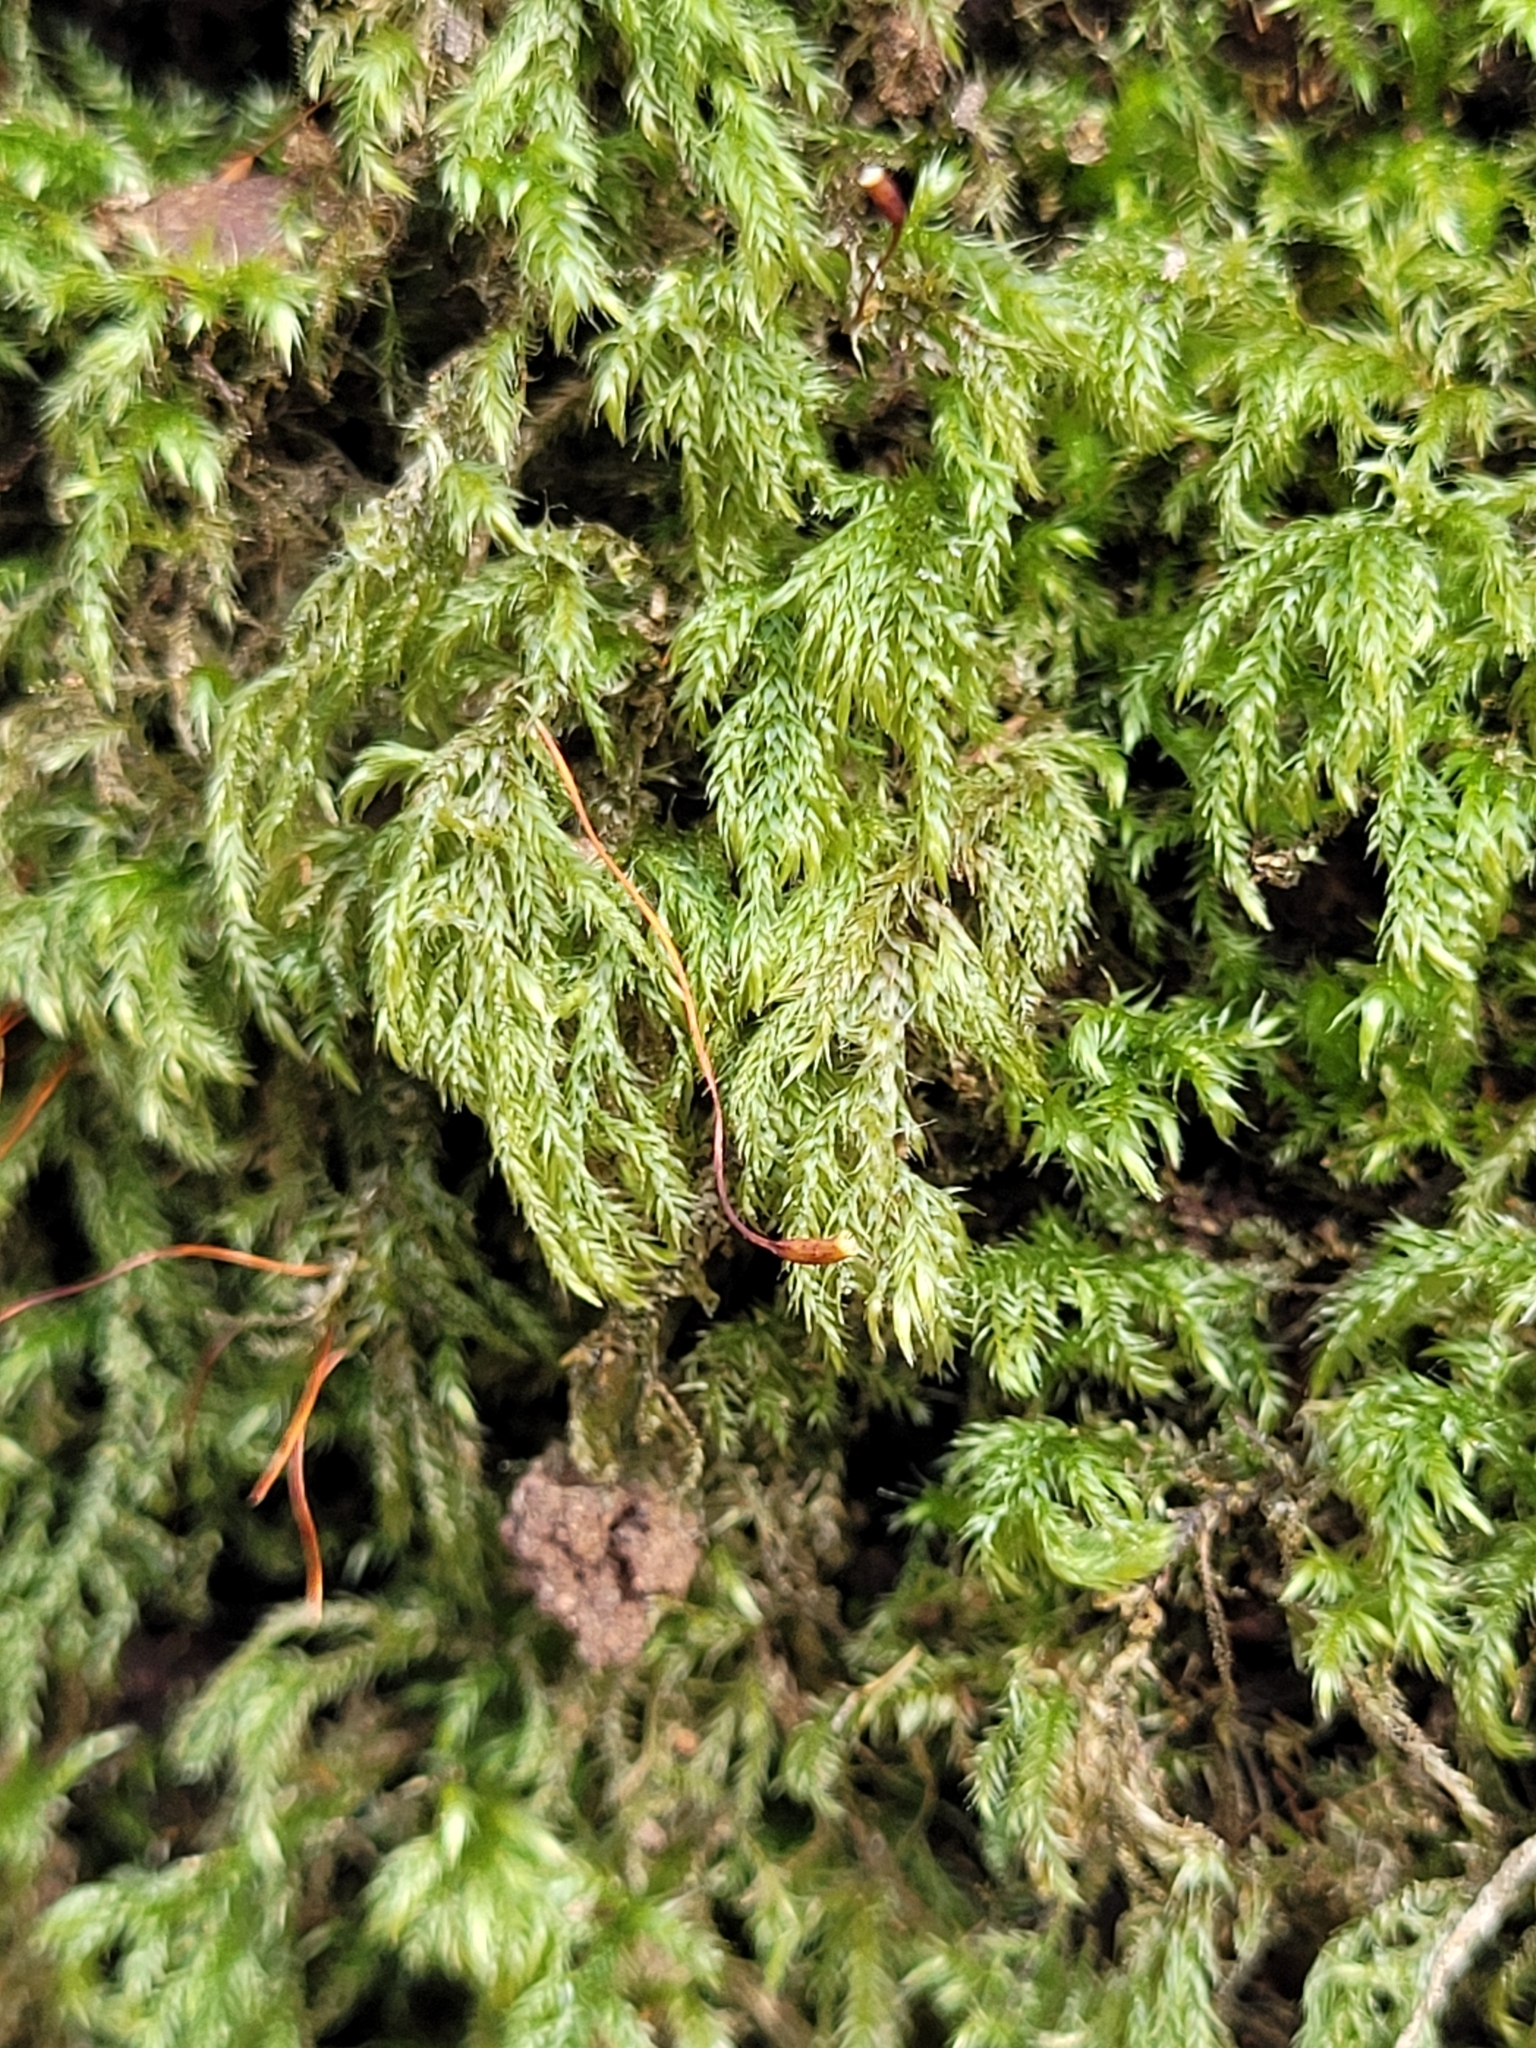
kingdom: Plantae
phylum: Bryophyta
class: Bryopsida
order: Hypnales
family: Lembophyllaceae
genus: Pseudisothecium
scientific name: Pseudisothecium myosuroides
